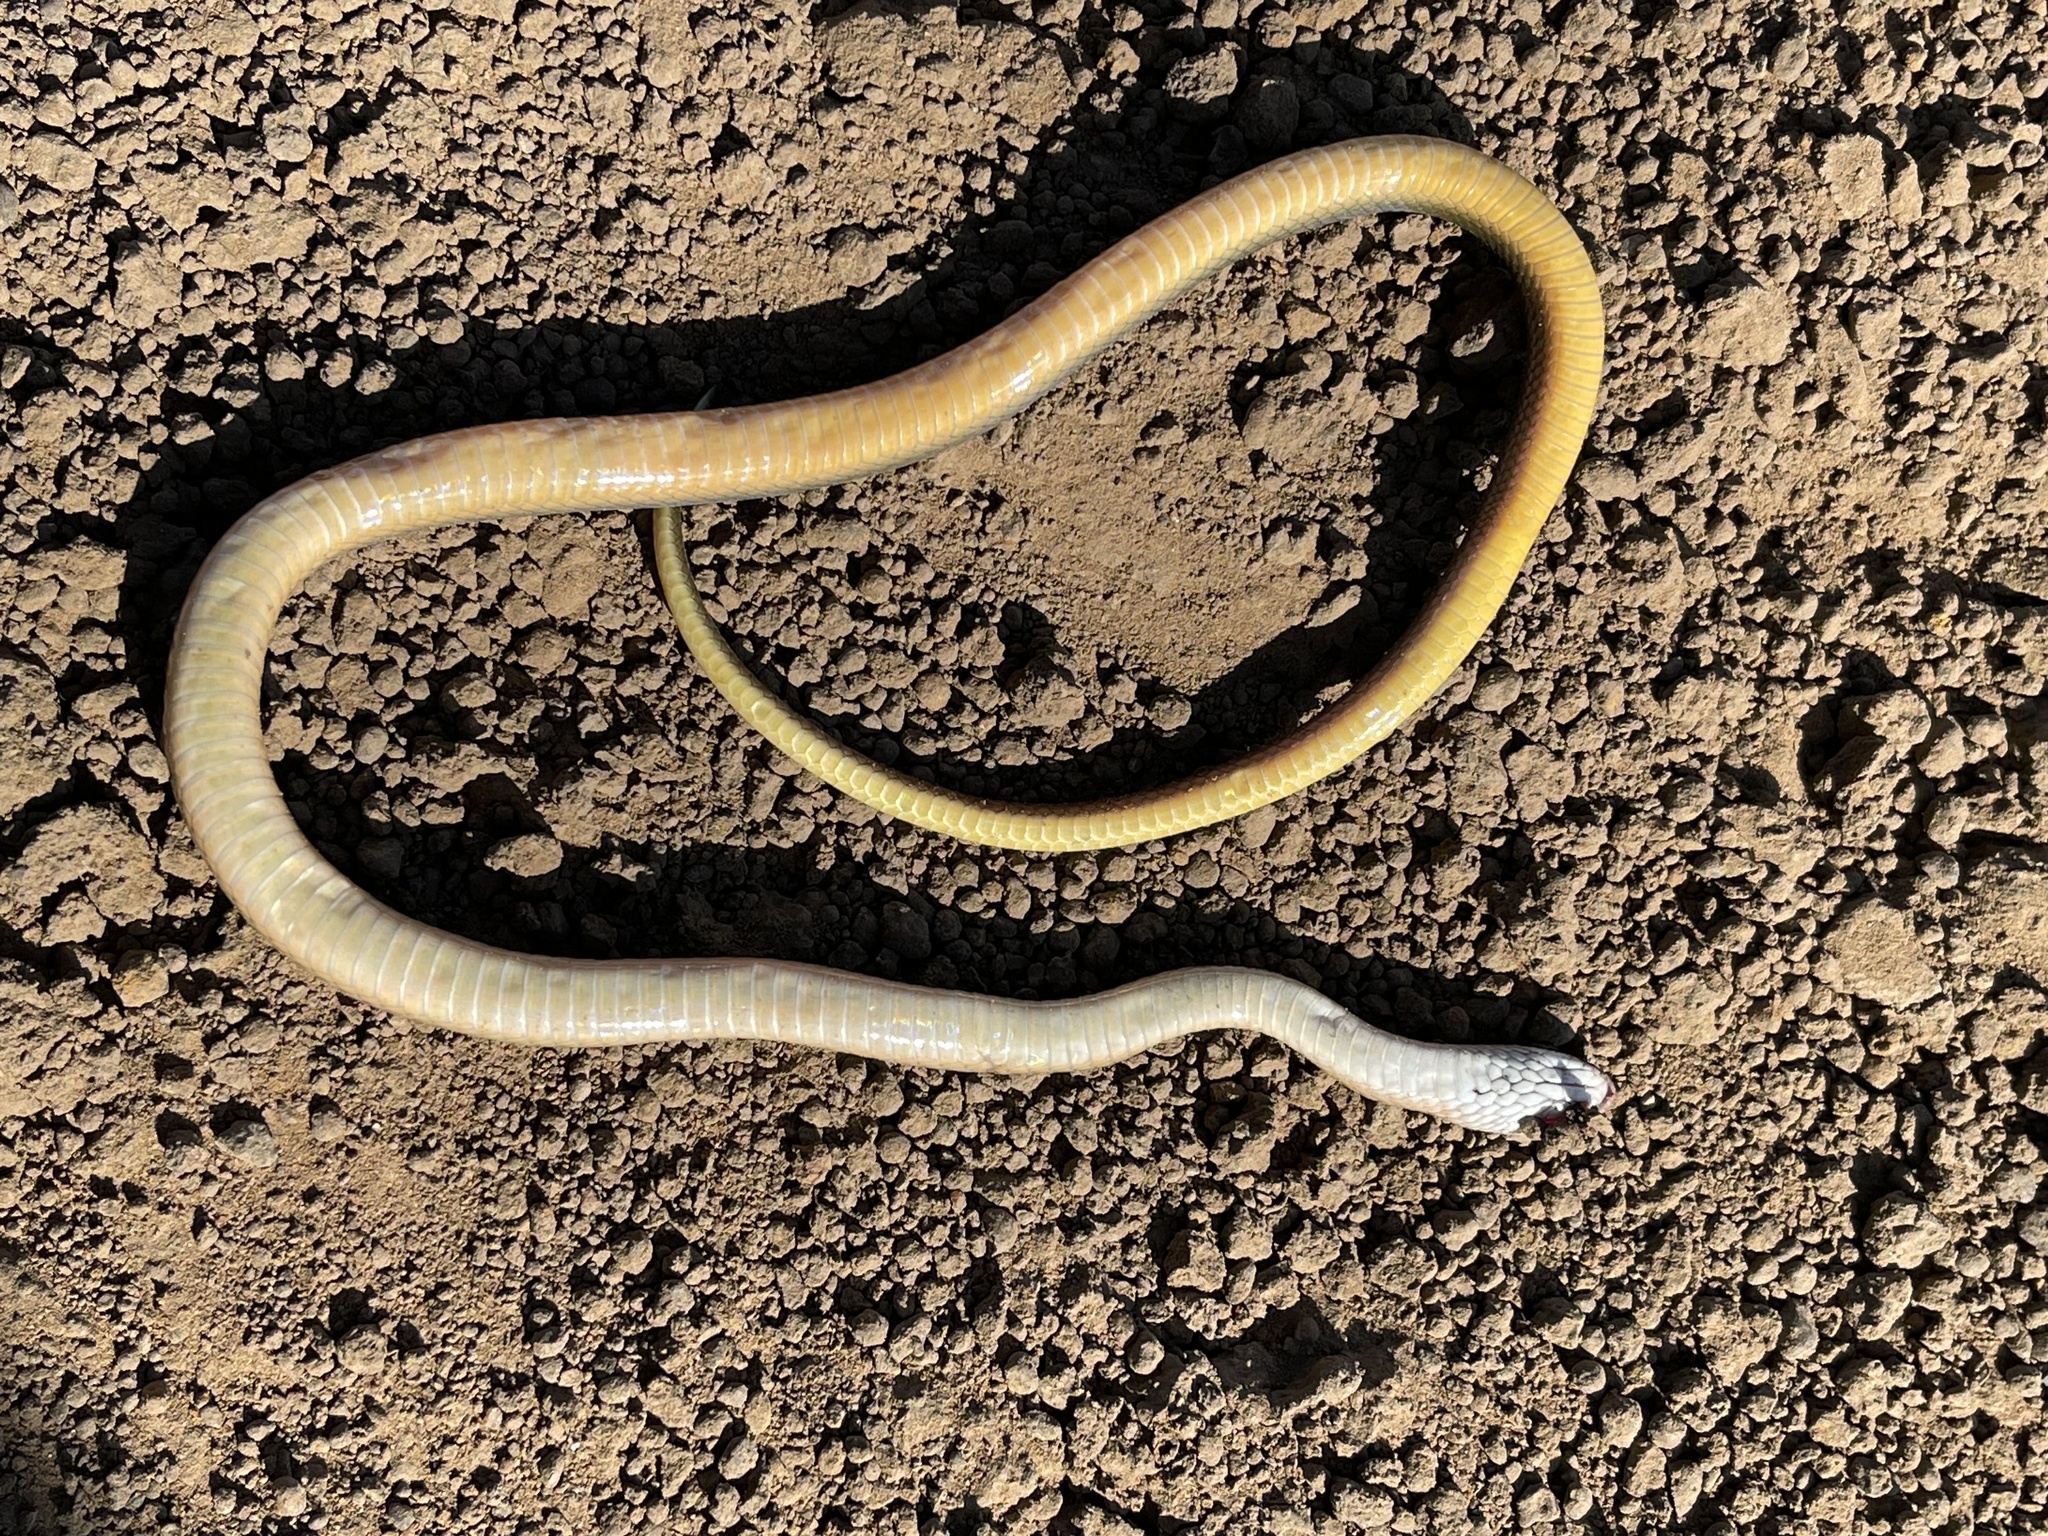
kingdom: Animalia
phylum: Chordata
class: Squamata
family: Lamprophiidae
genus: Lycodonomorphus
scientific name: Lycodonomorphus rufulus
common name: Brown water snake
